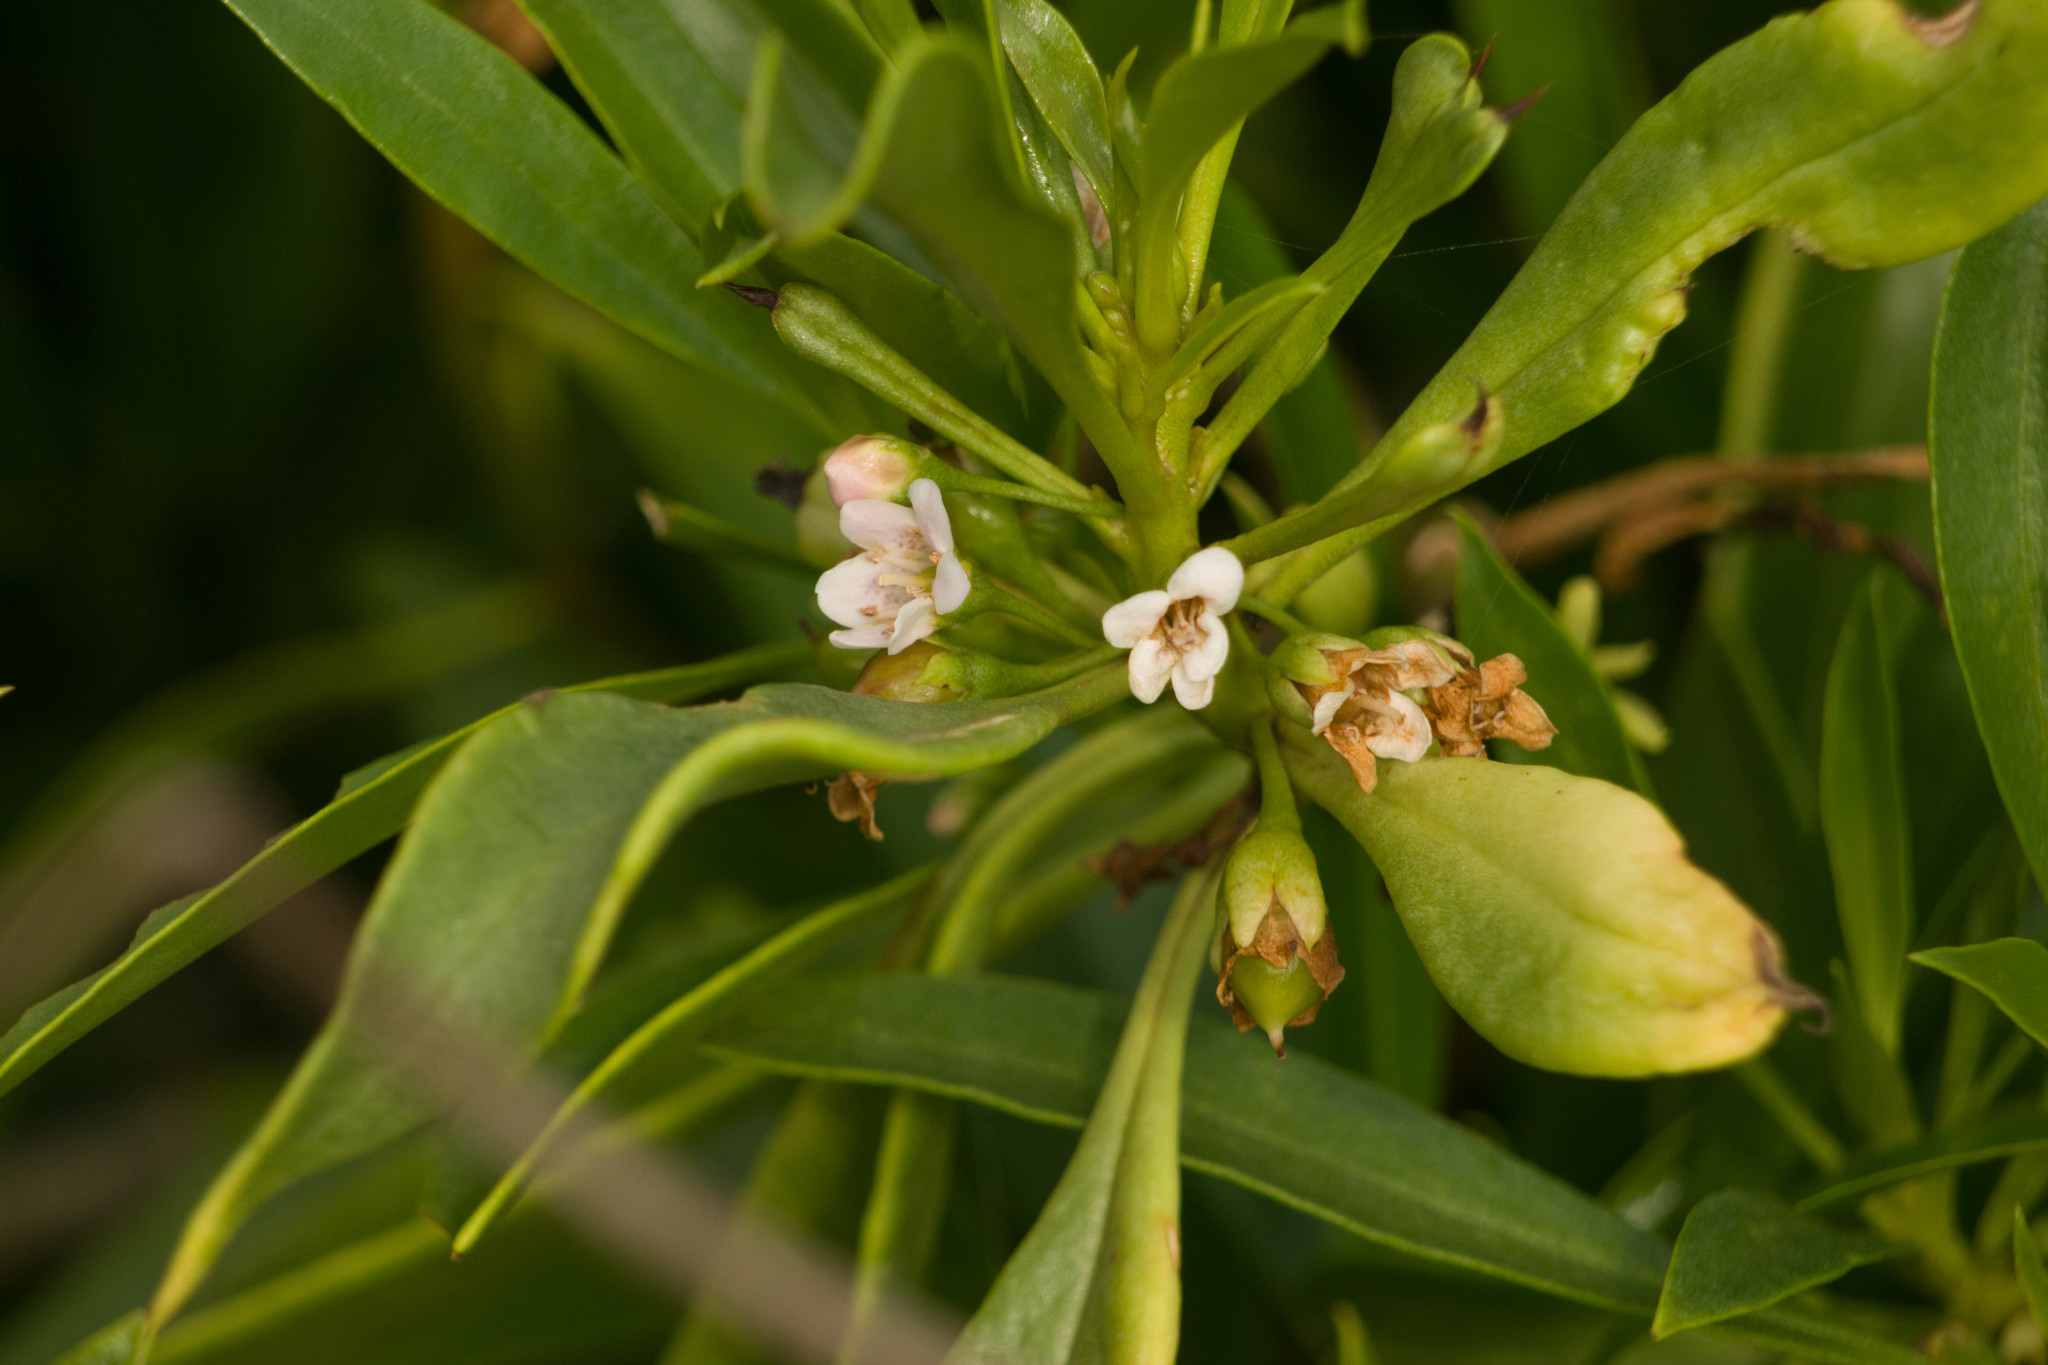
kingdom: Plantae
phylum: Tracheophyta
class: Magnoliopsida
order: Lamiales
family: Scrophulariaceae
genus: Myoporum
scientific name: Myoporum sandwicense
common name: Bastard-sandalwood
